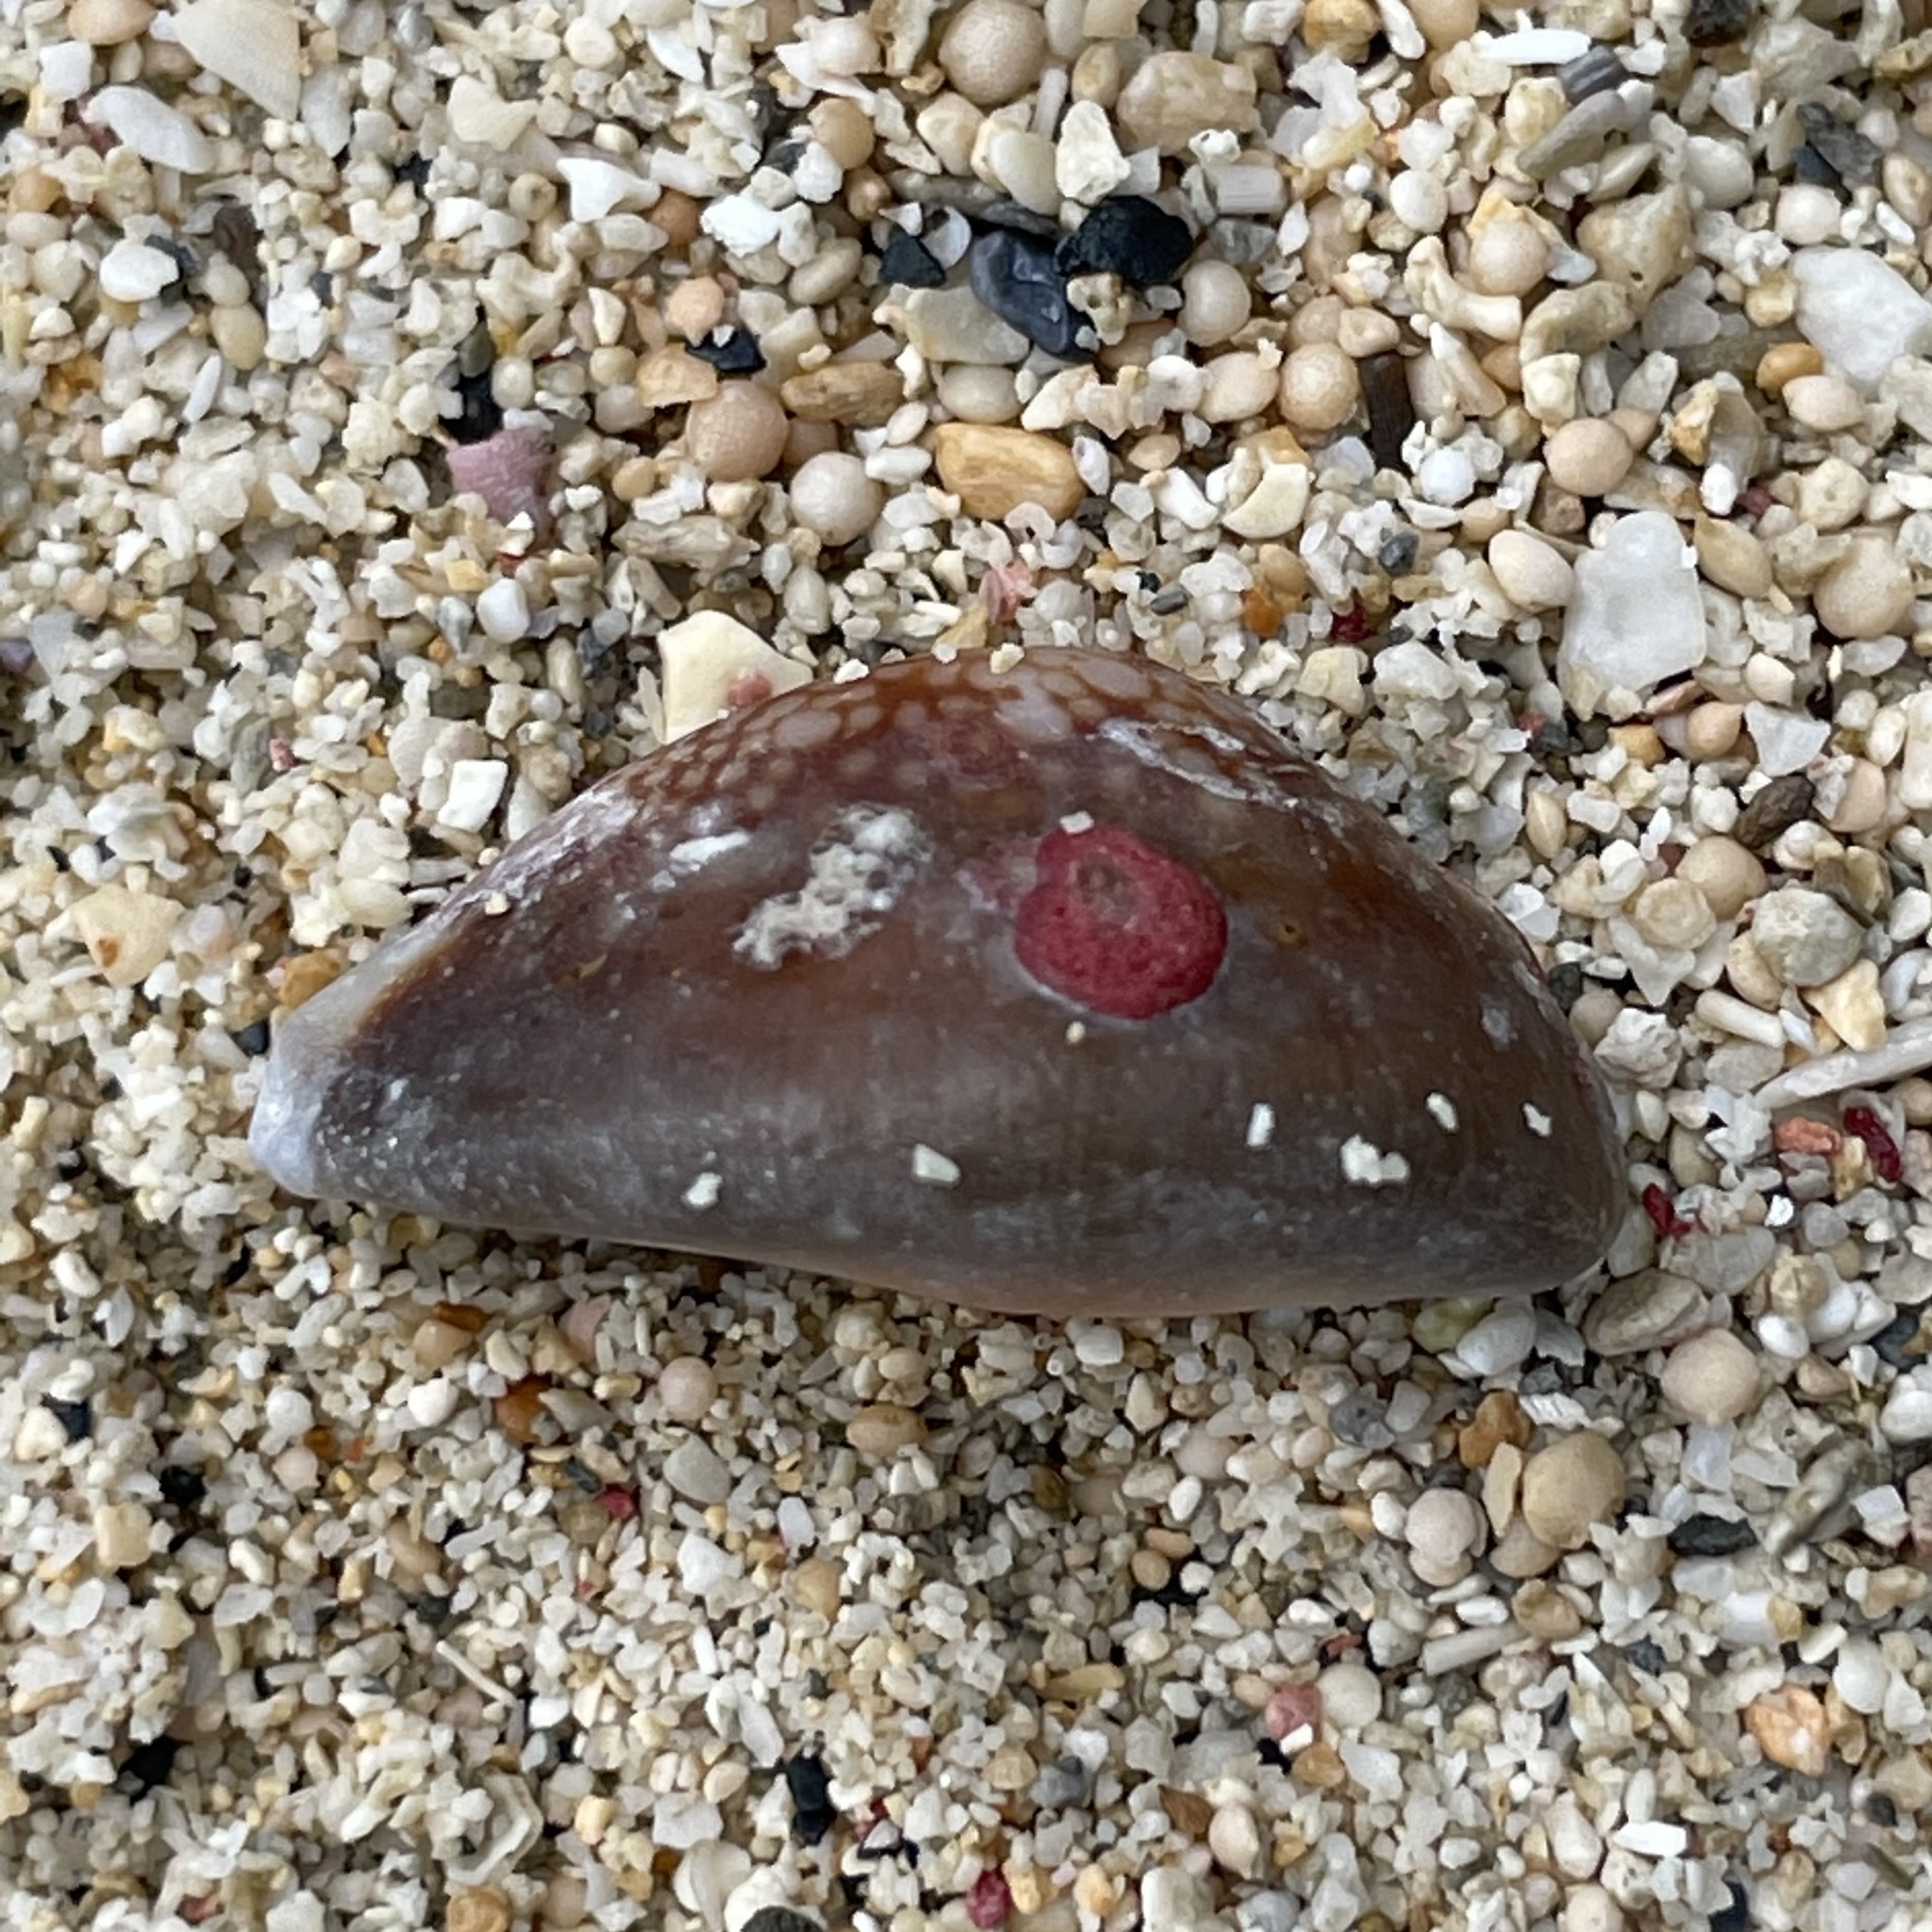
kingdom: Animalia
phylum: Mollusca
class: Gastropoda
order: Littorinimorpha
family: Cypraeidae
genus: Monetaria
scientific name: Monetaria caputserpentis
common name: Serpent's head cowrie
